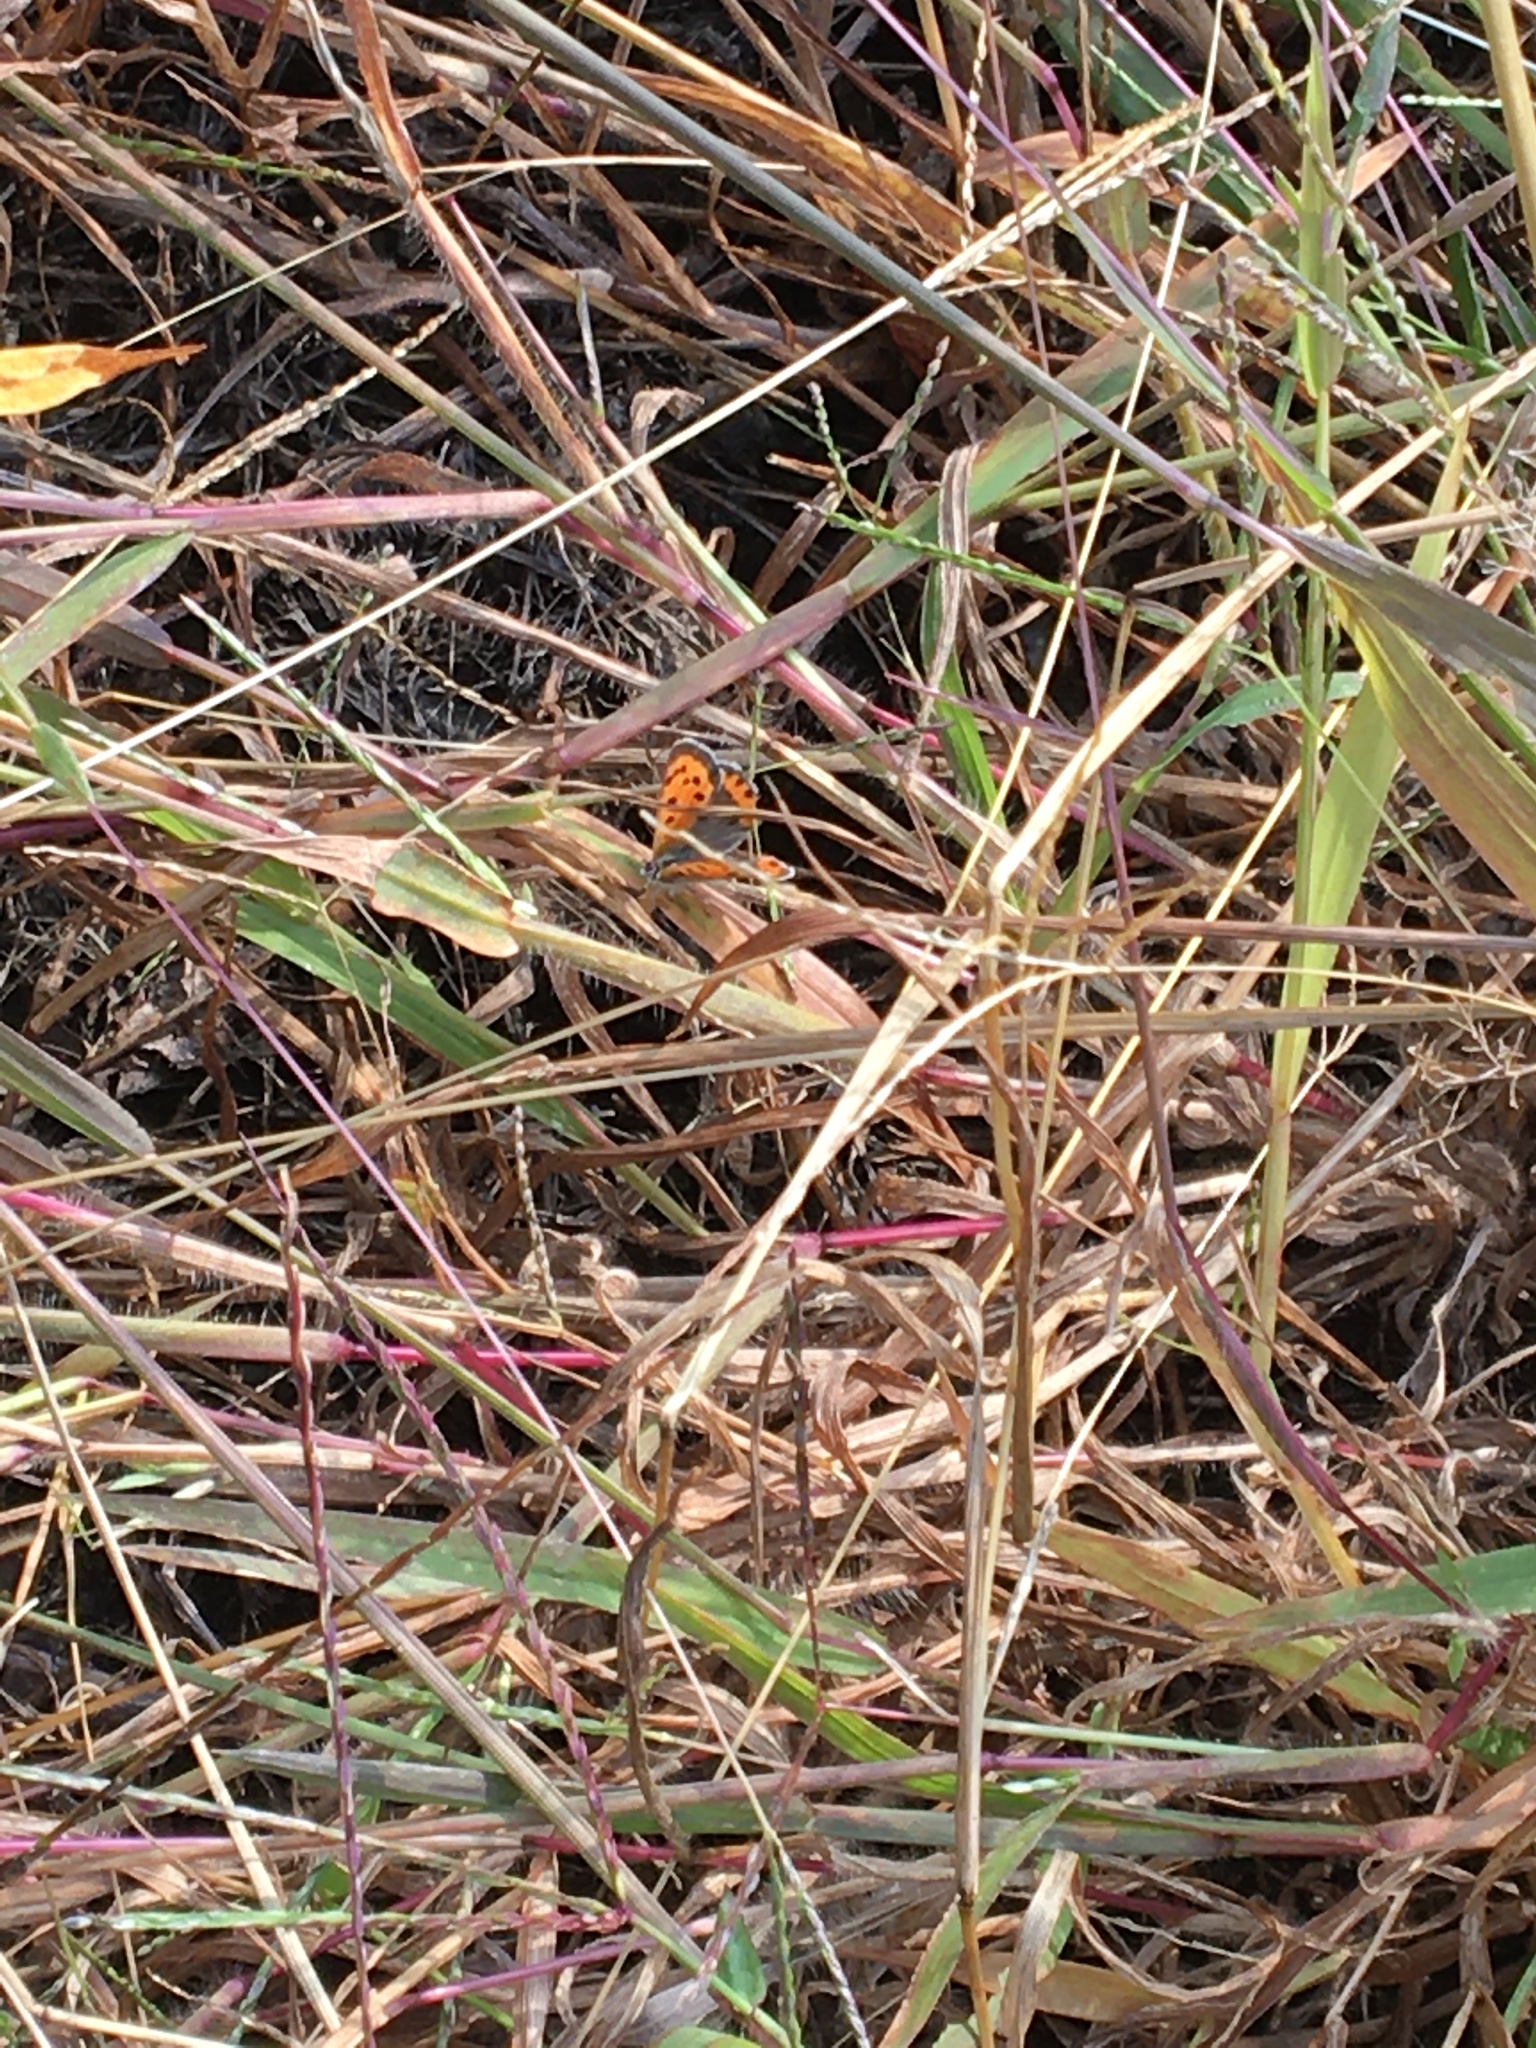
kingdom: Animalia
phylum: Arthropoda
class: Insecta
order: Lepidoptera
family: Lycaenidae
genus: Lycaena
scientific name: Lycaena hypophlaeas
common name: American copper
